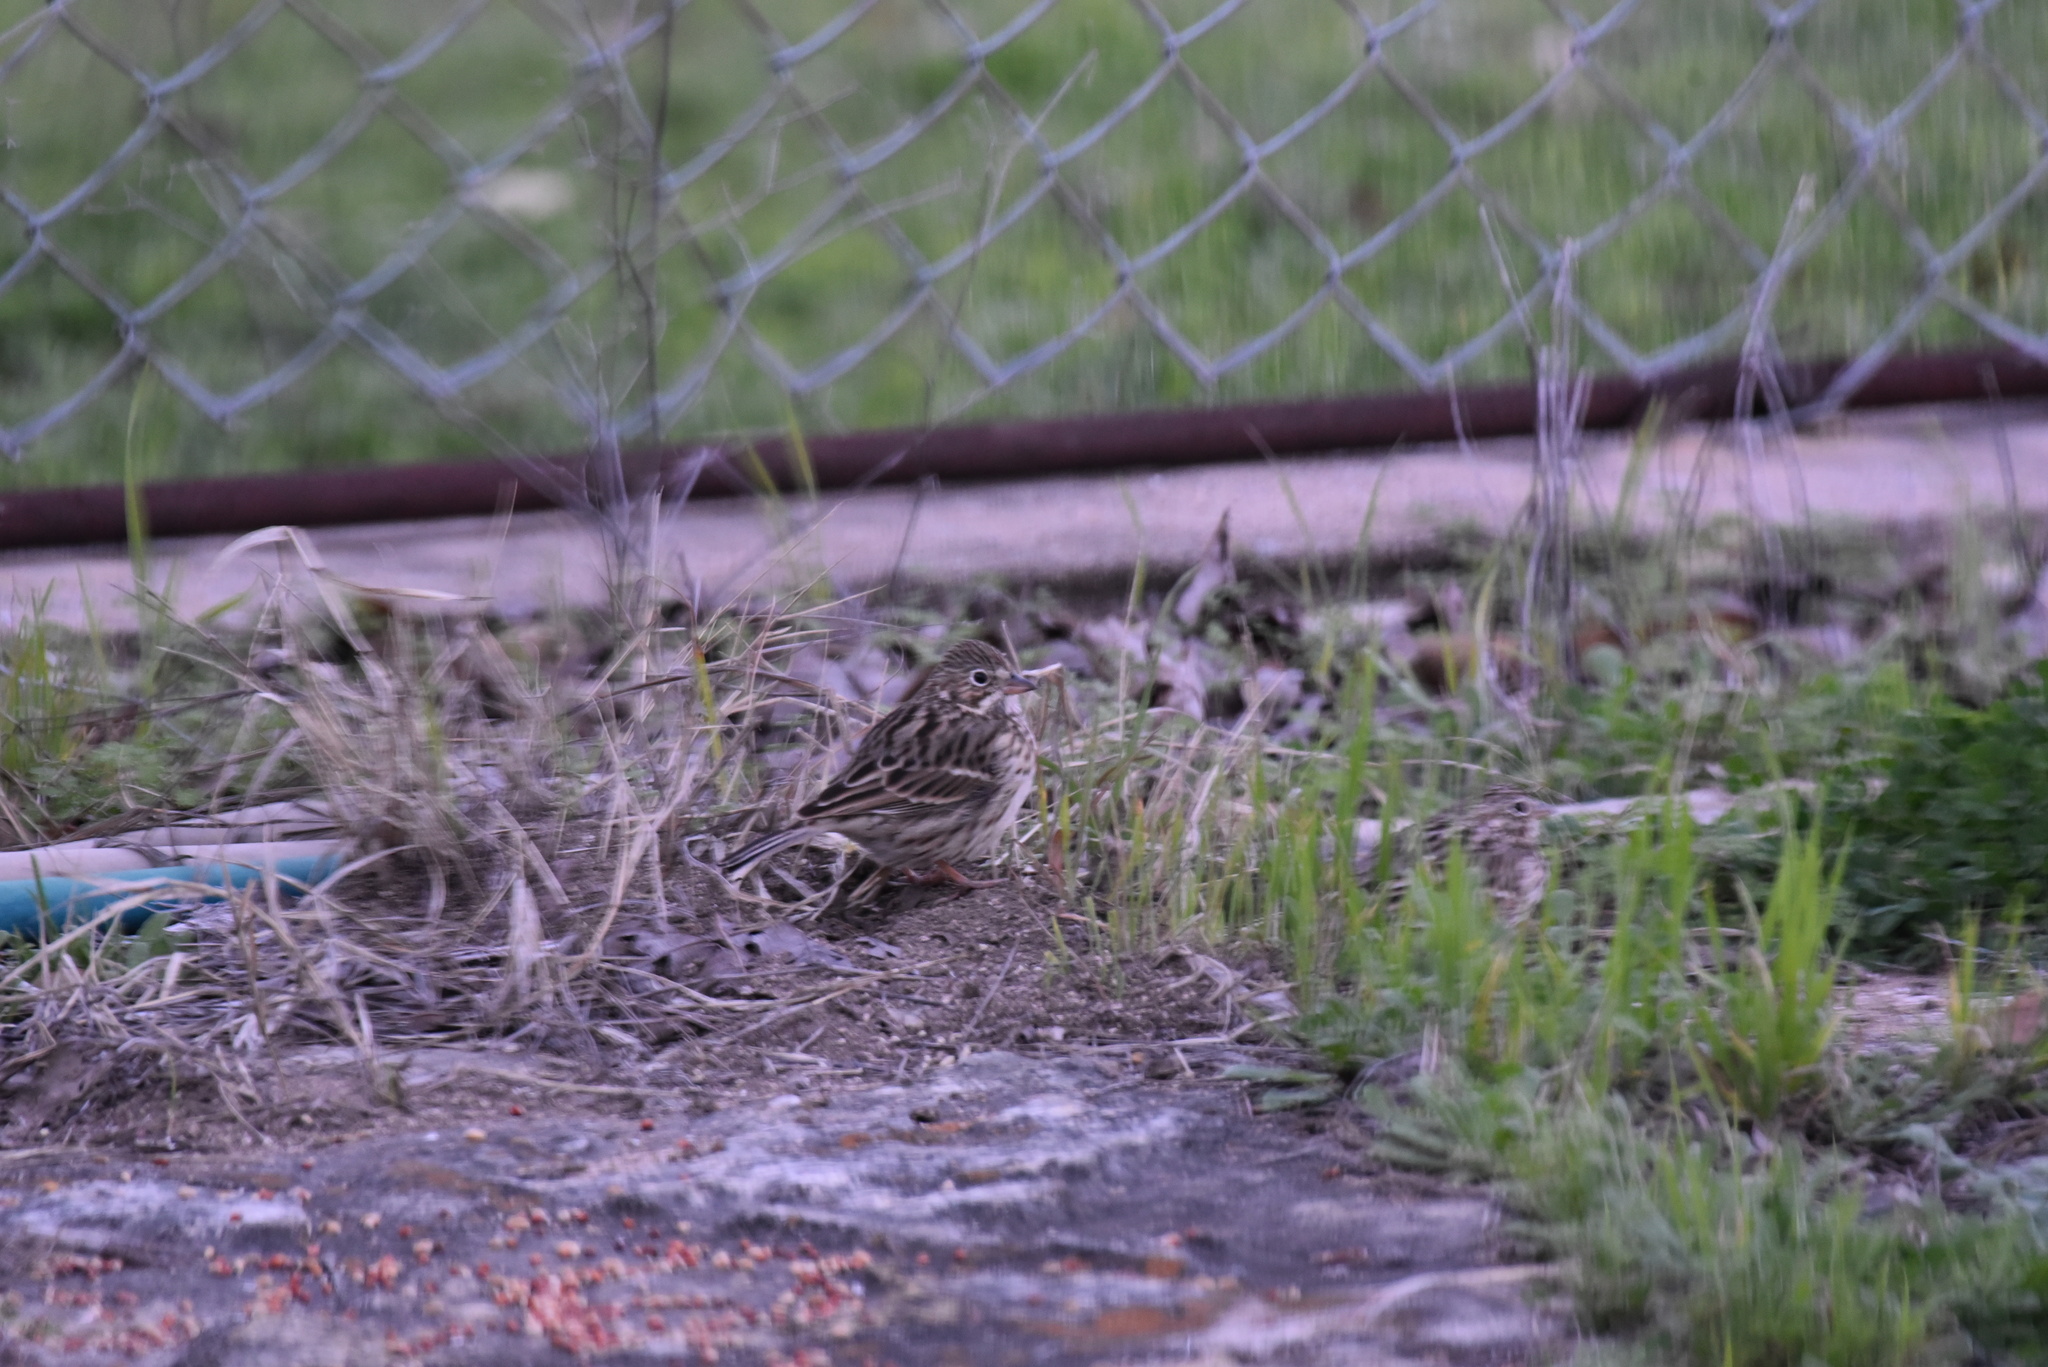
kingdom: Animalia
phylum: Chordata
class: Aves
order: Passeriformes
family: Passerellidae
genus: Pooecetes
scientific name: Pooecetes gramineus
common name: Vesper sparrow
